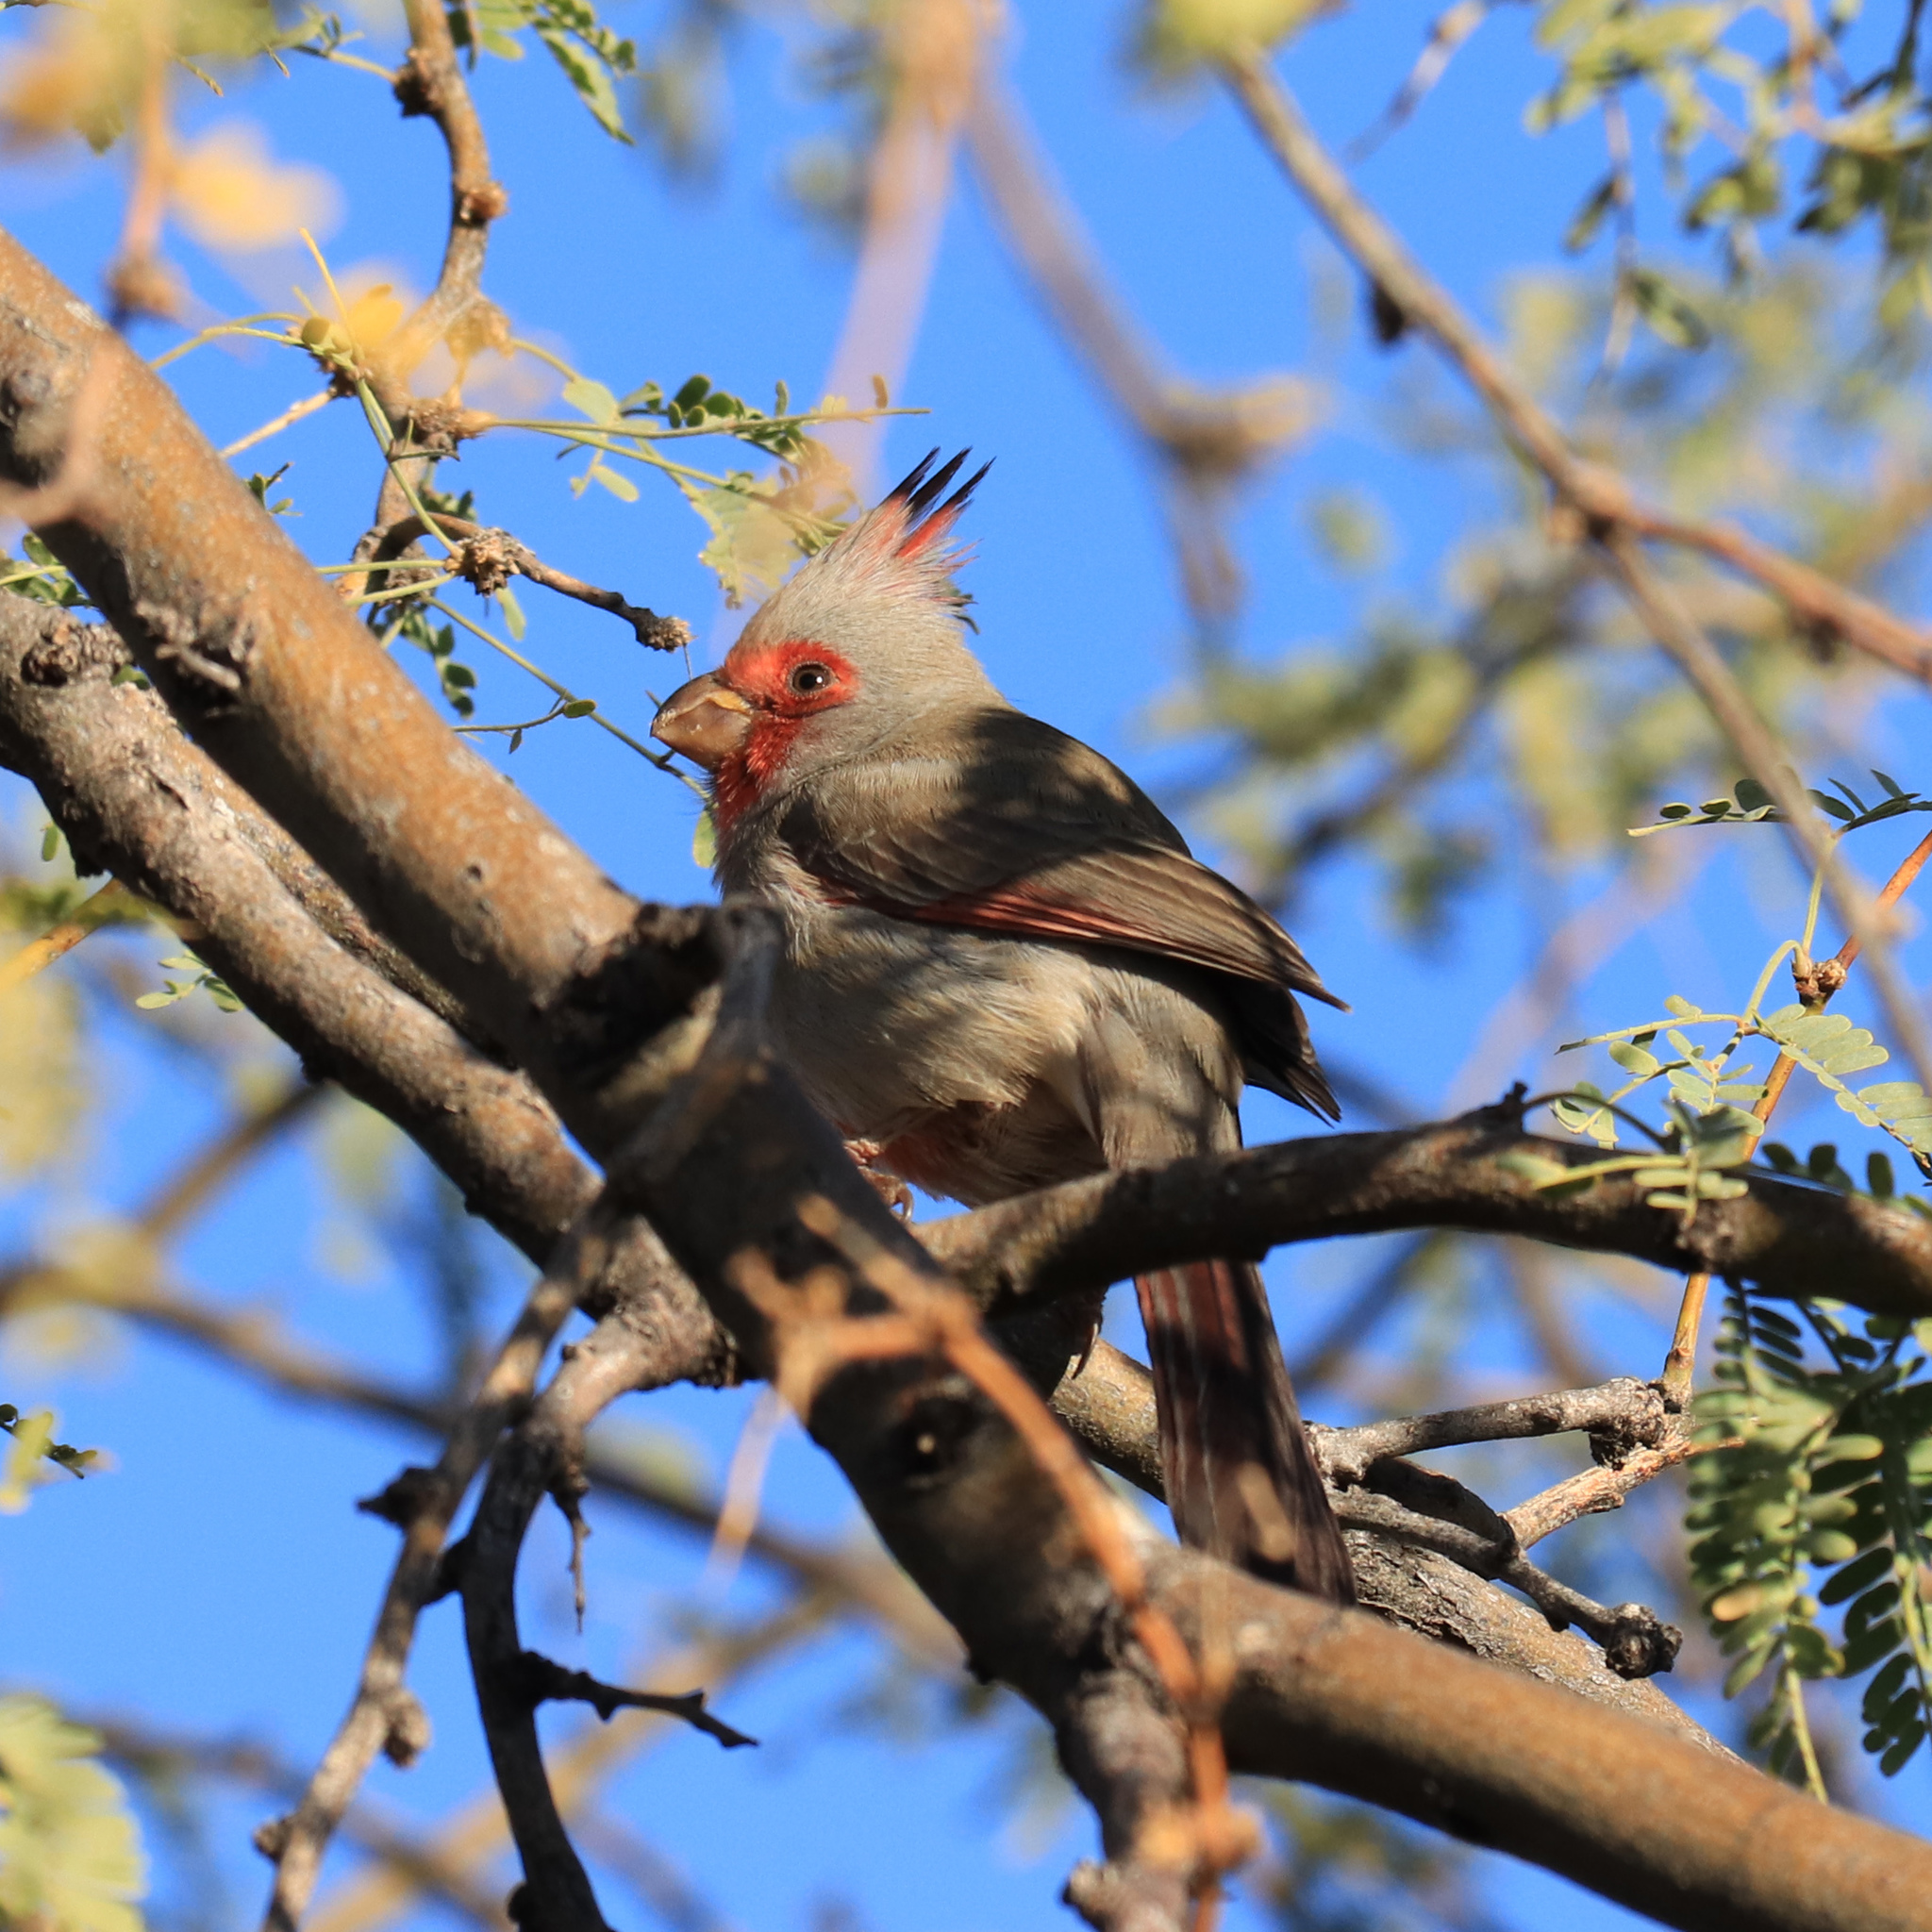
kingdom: Animalia
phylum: Chordata
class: Aves
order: Passeriformes
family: Cardinalidae
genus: Cardinalis
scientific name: Cardinalis sinuatus
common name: Pyrrhuloxia
